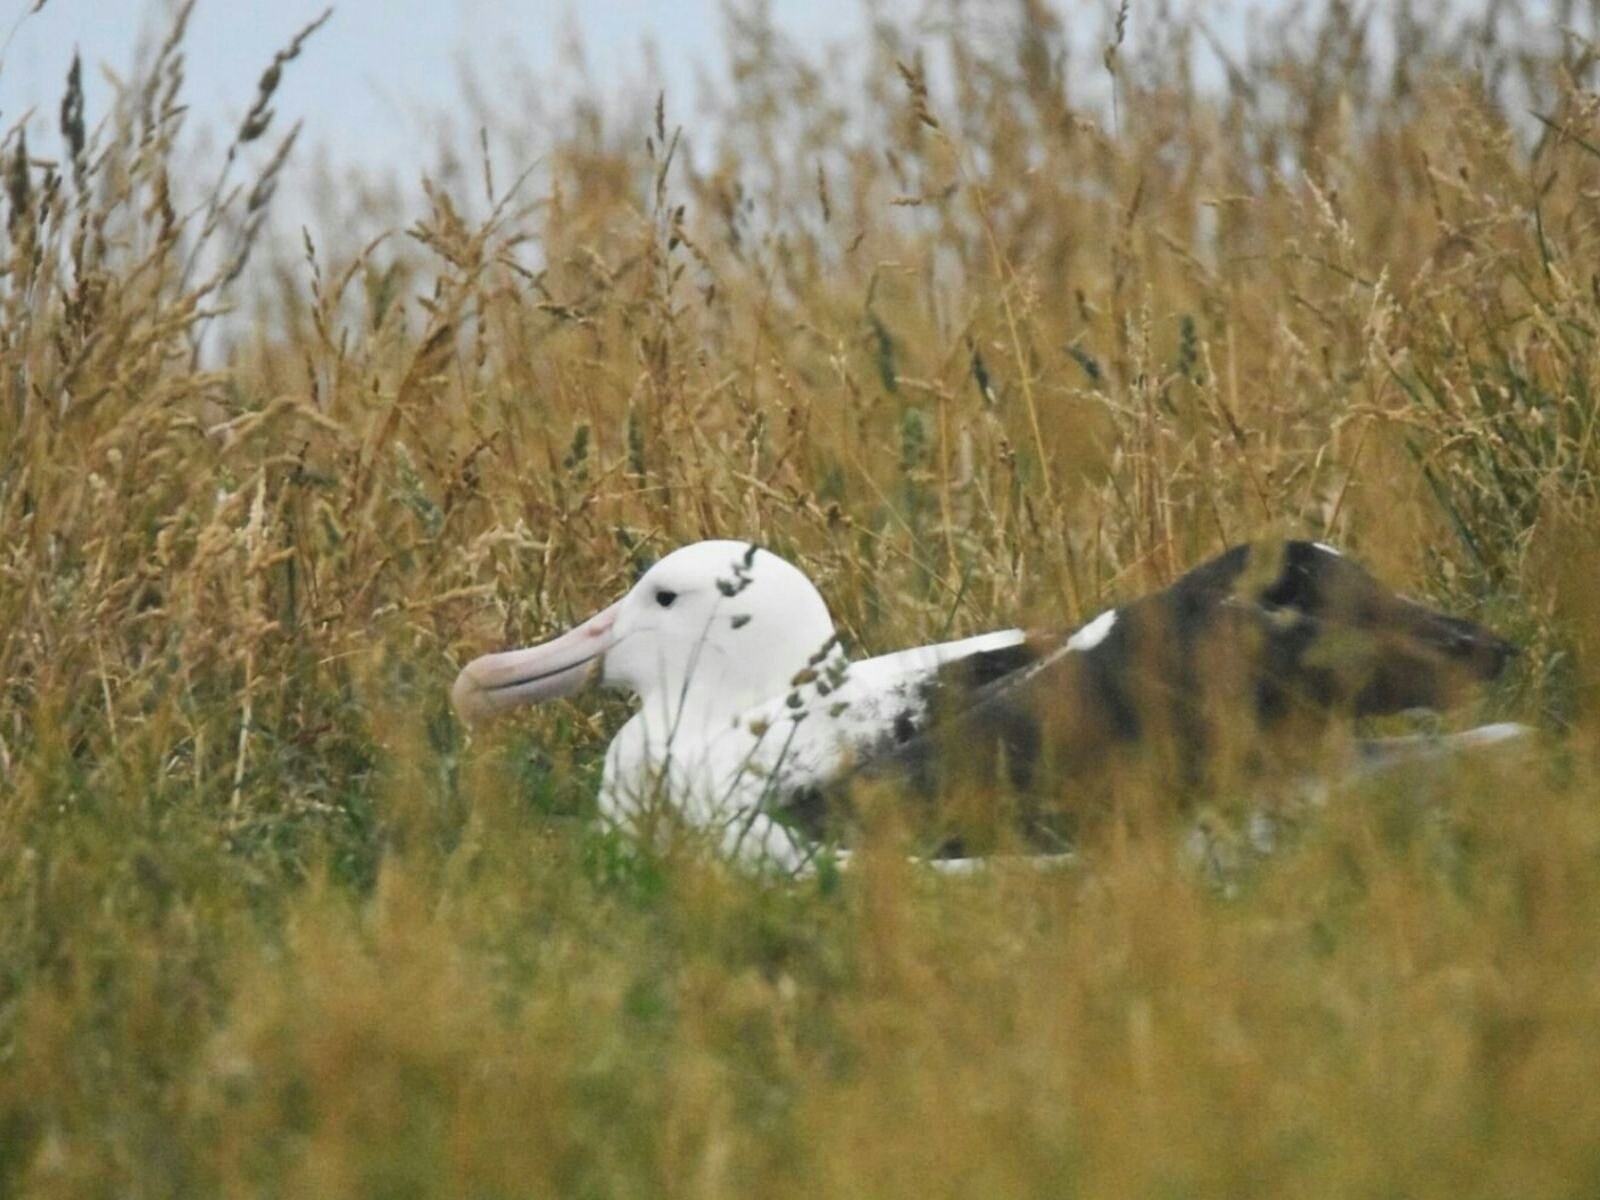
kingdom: Animalia
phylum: Chordata
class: Aves
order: Procellariiformes
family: Diomedeidae
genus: Diomedea
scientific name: Diomedea sanfordi
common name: Northern royal albatross
